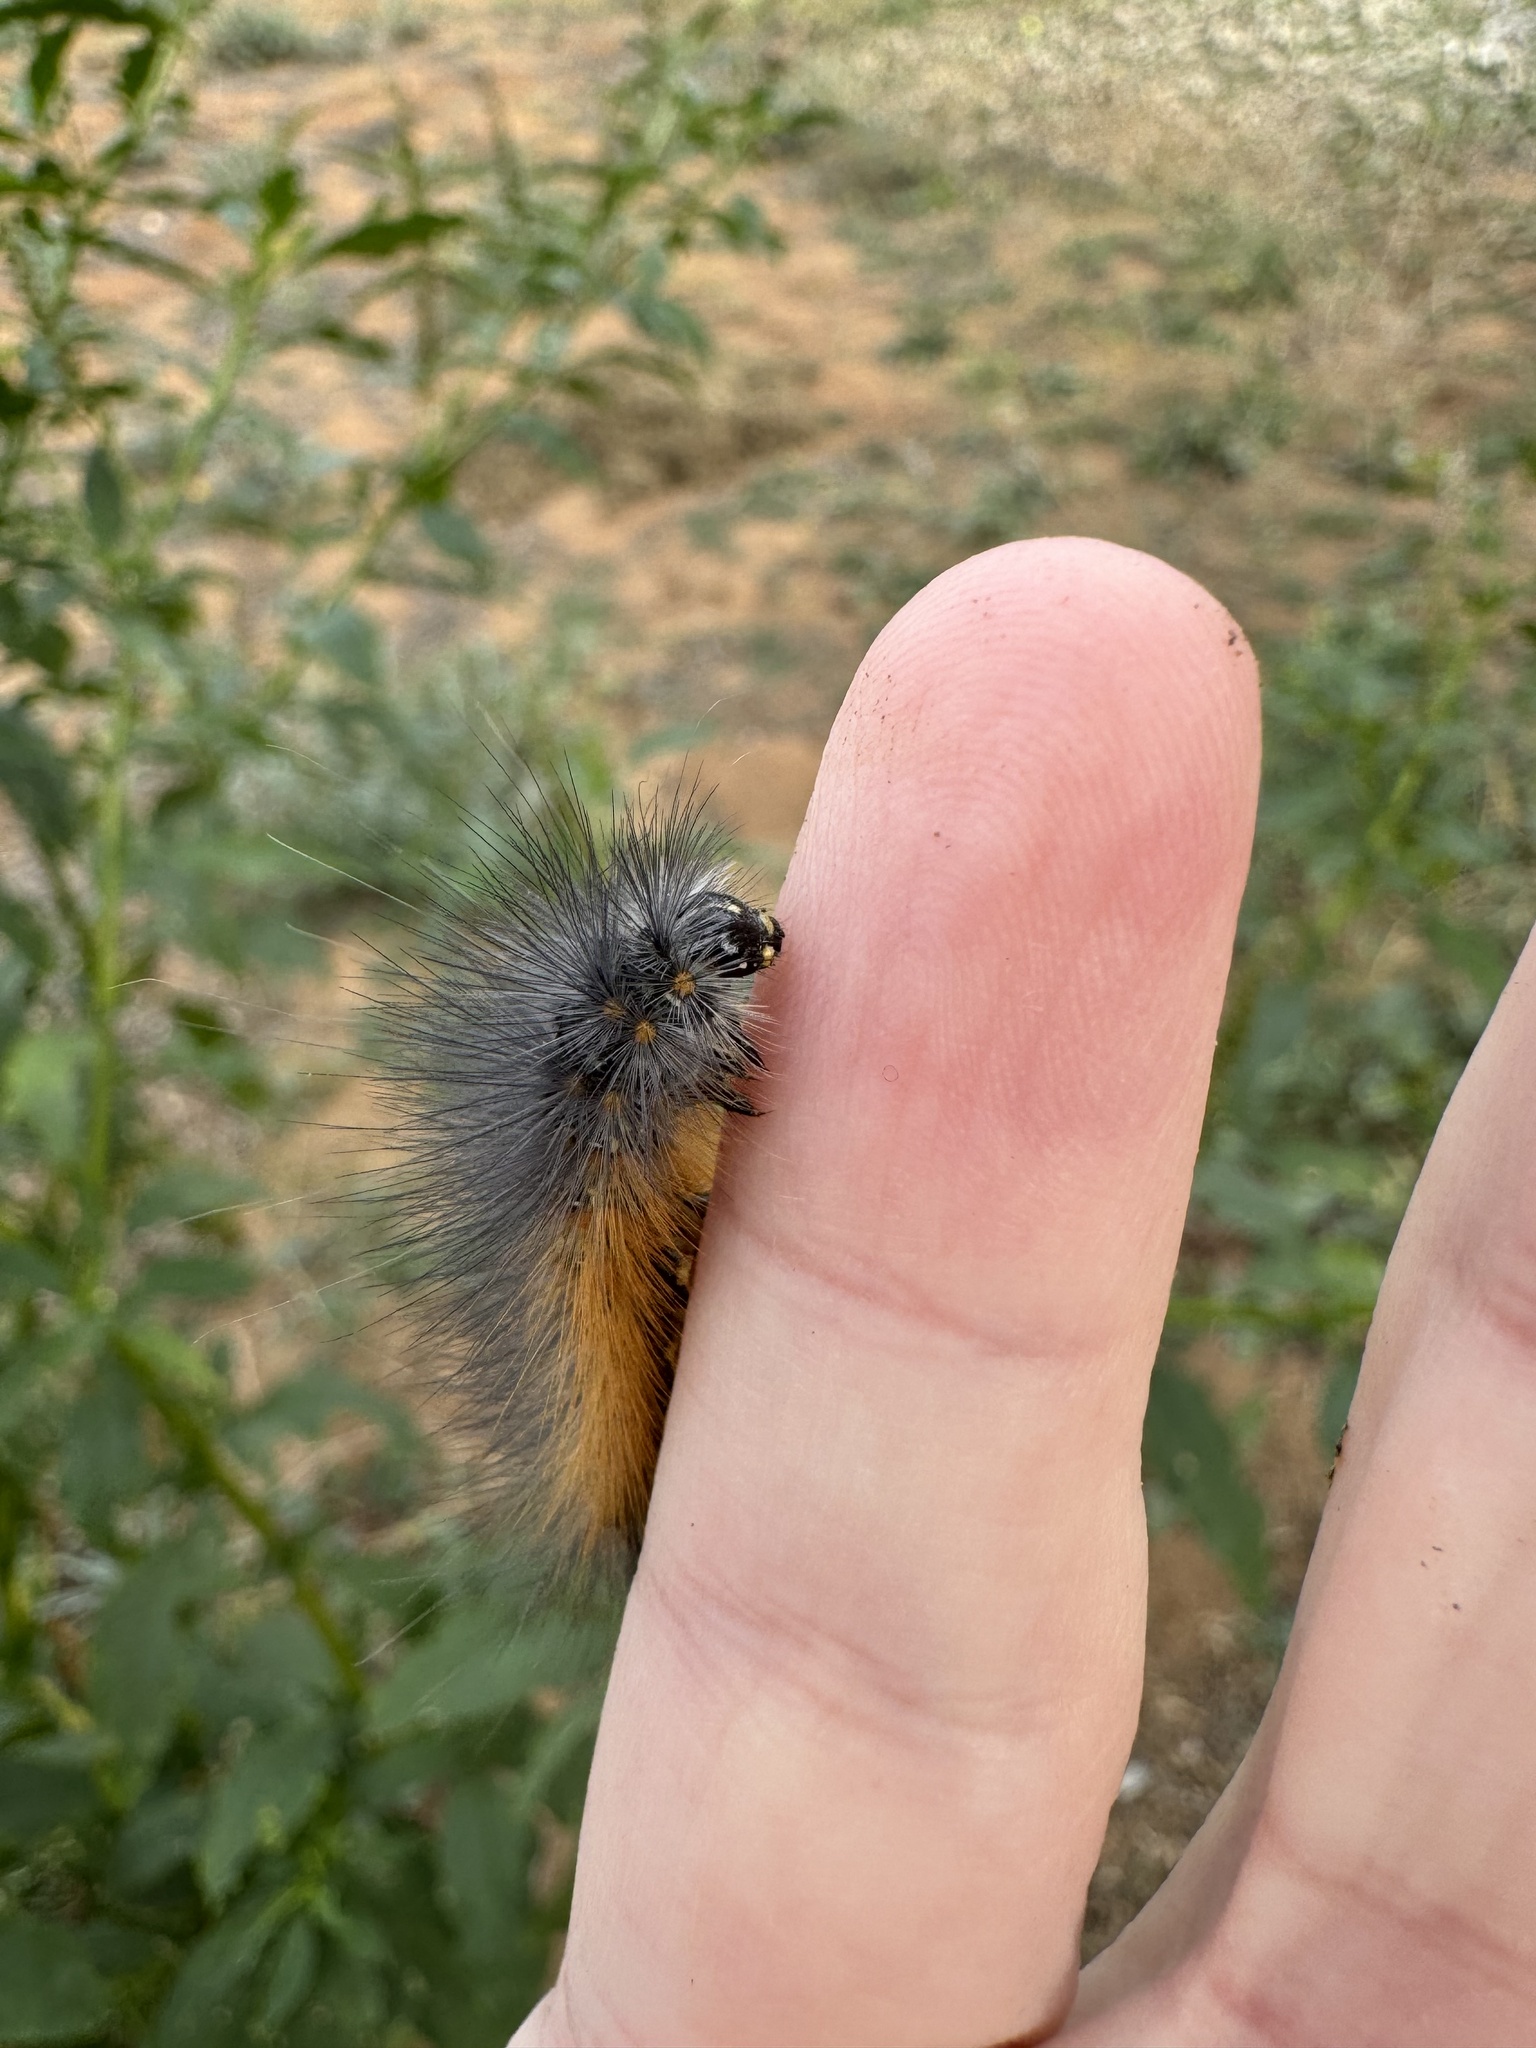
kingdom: Animalia
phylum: Arthropoda
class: Insecta
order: Lepidoptera
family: Erebidae
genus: Estigmene
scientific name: Estigmene acrea
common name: Salt marsh moth
